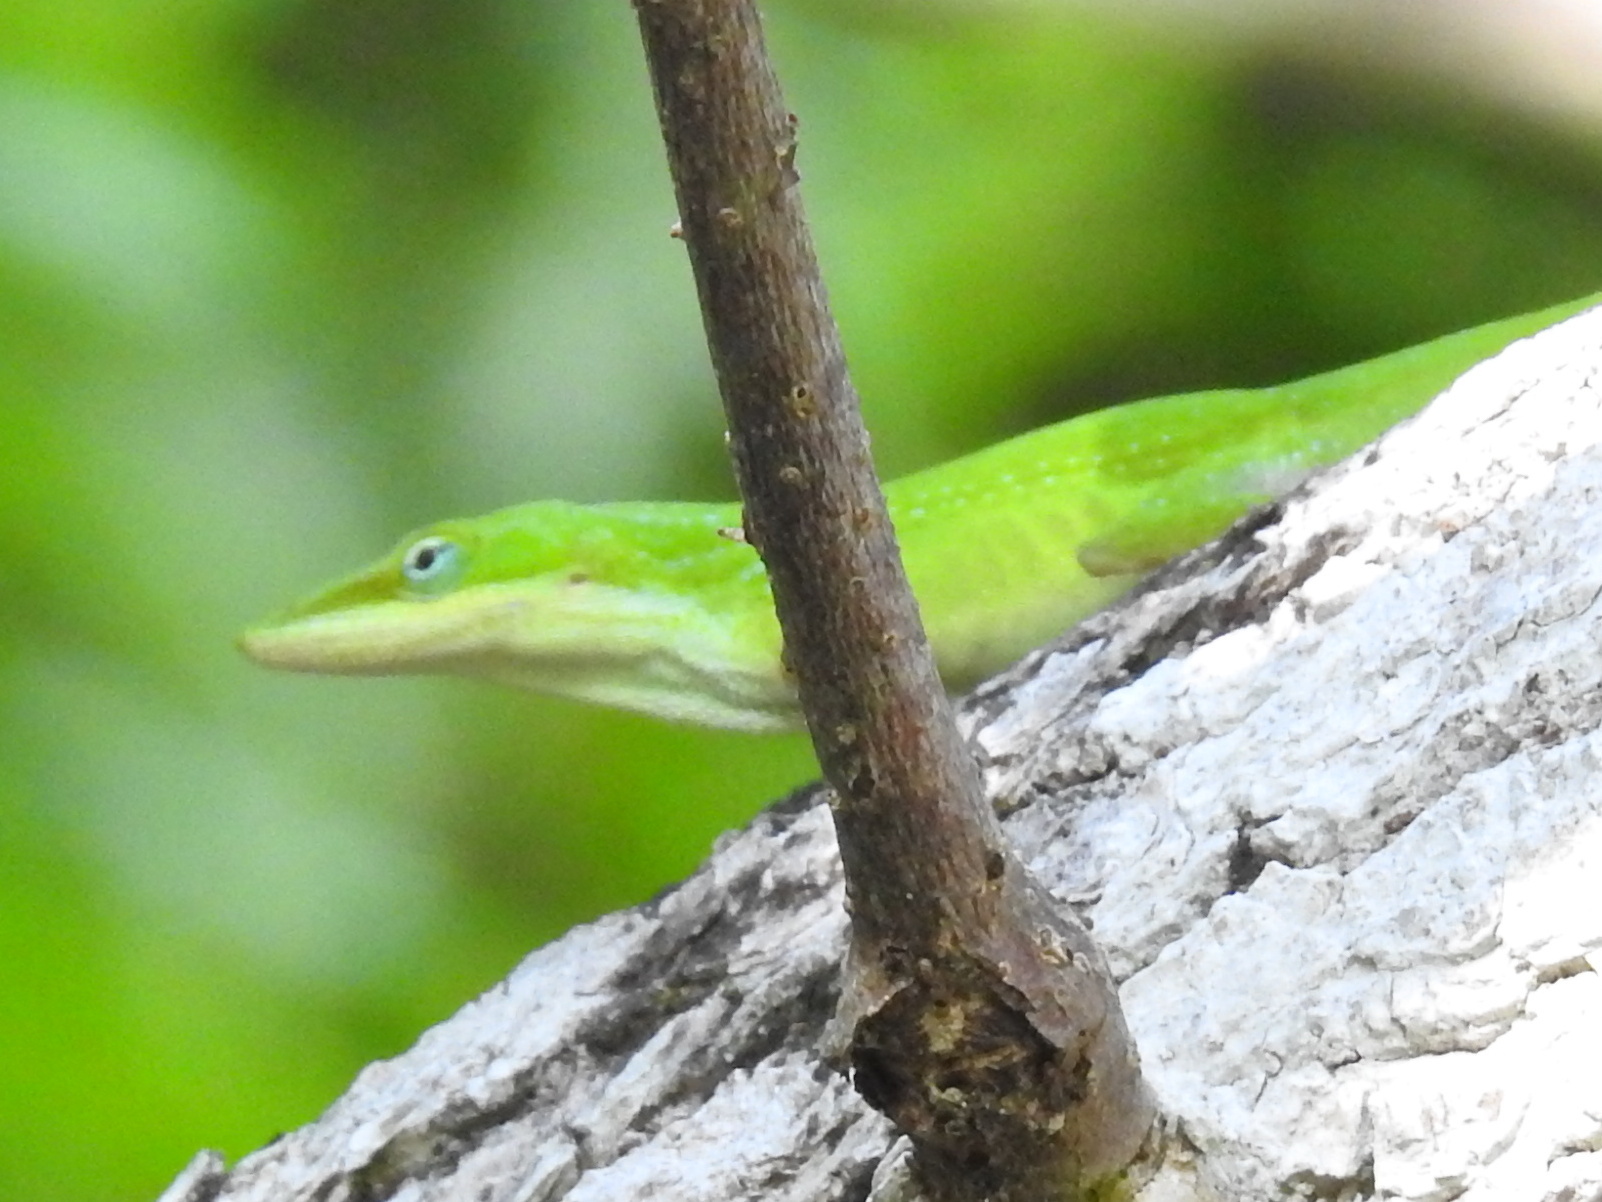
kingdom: Animalia
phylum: Chordata
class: Squamata
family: Dactyloidae
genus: Anolis
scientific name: Anolis carolinensis
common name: Green anole
